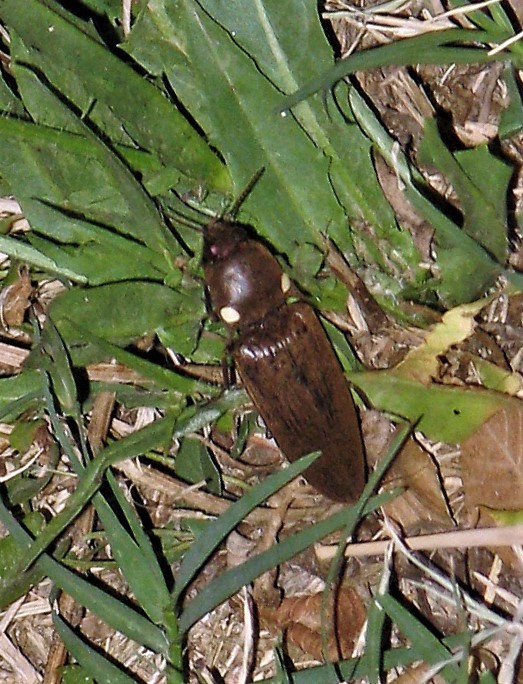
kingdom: Animalia
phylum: Arthropoda
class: Insecta
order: Coleoptera
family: Elateridae
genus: Pyrophorus
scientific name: Pyrophorus
